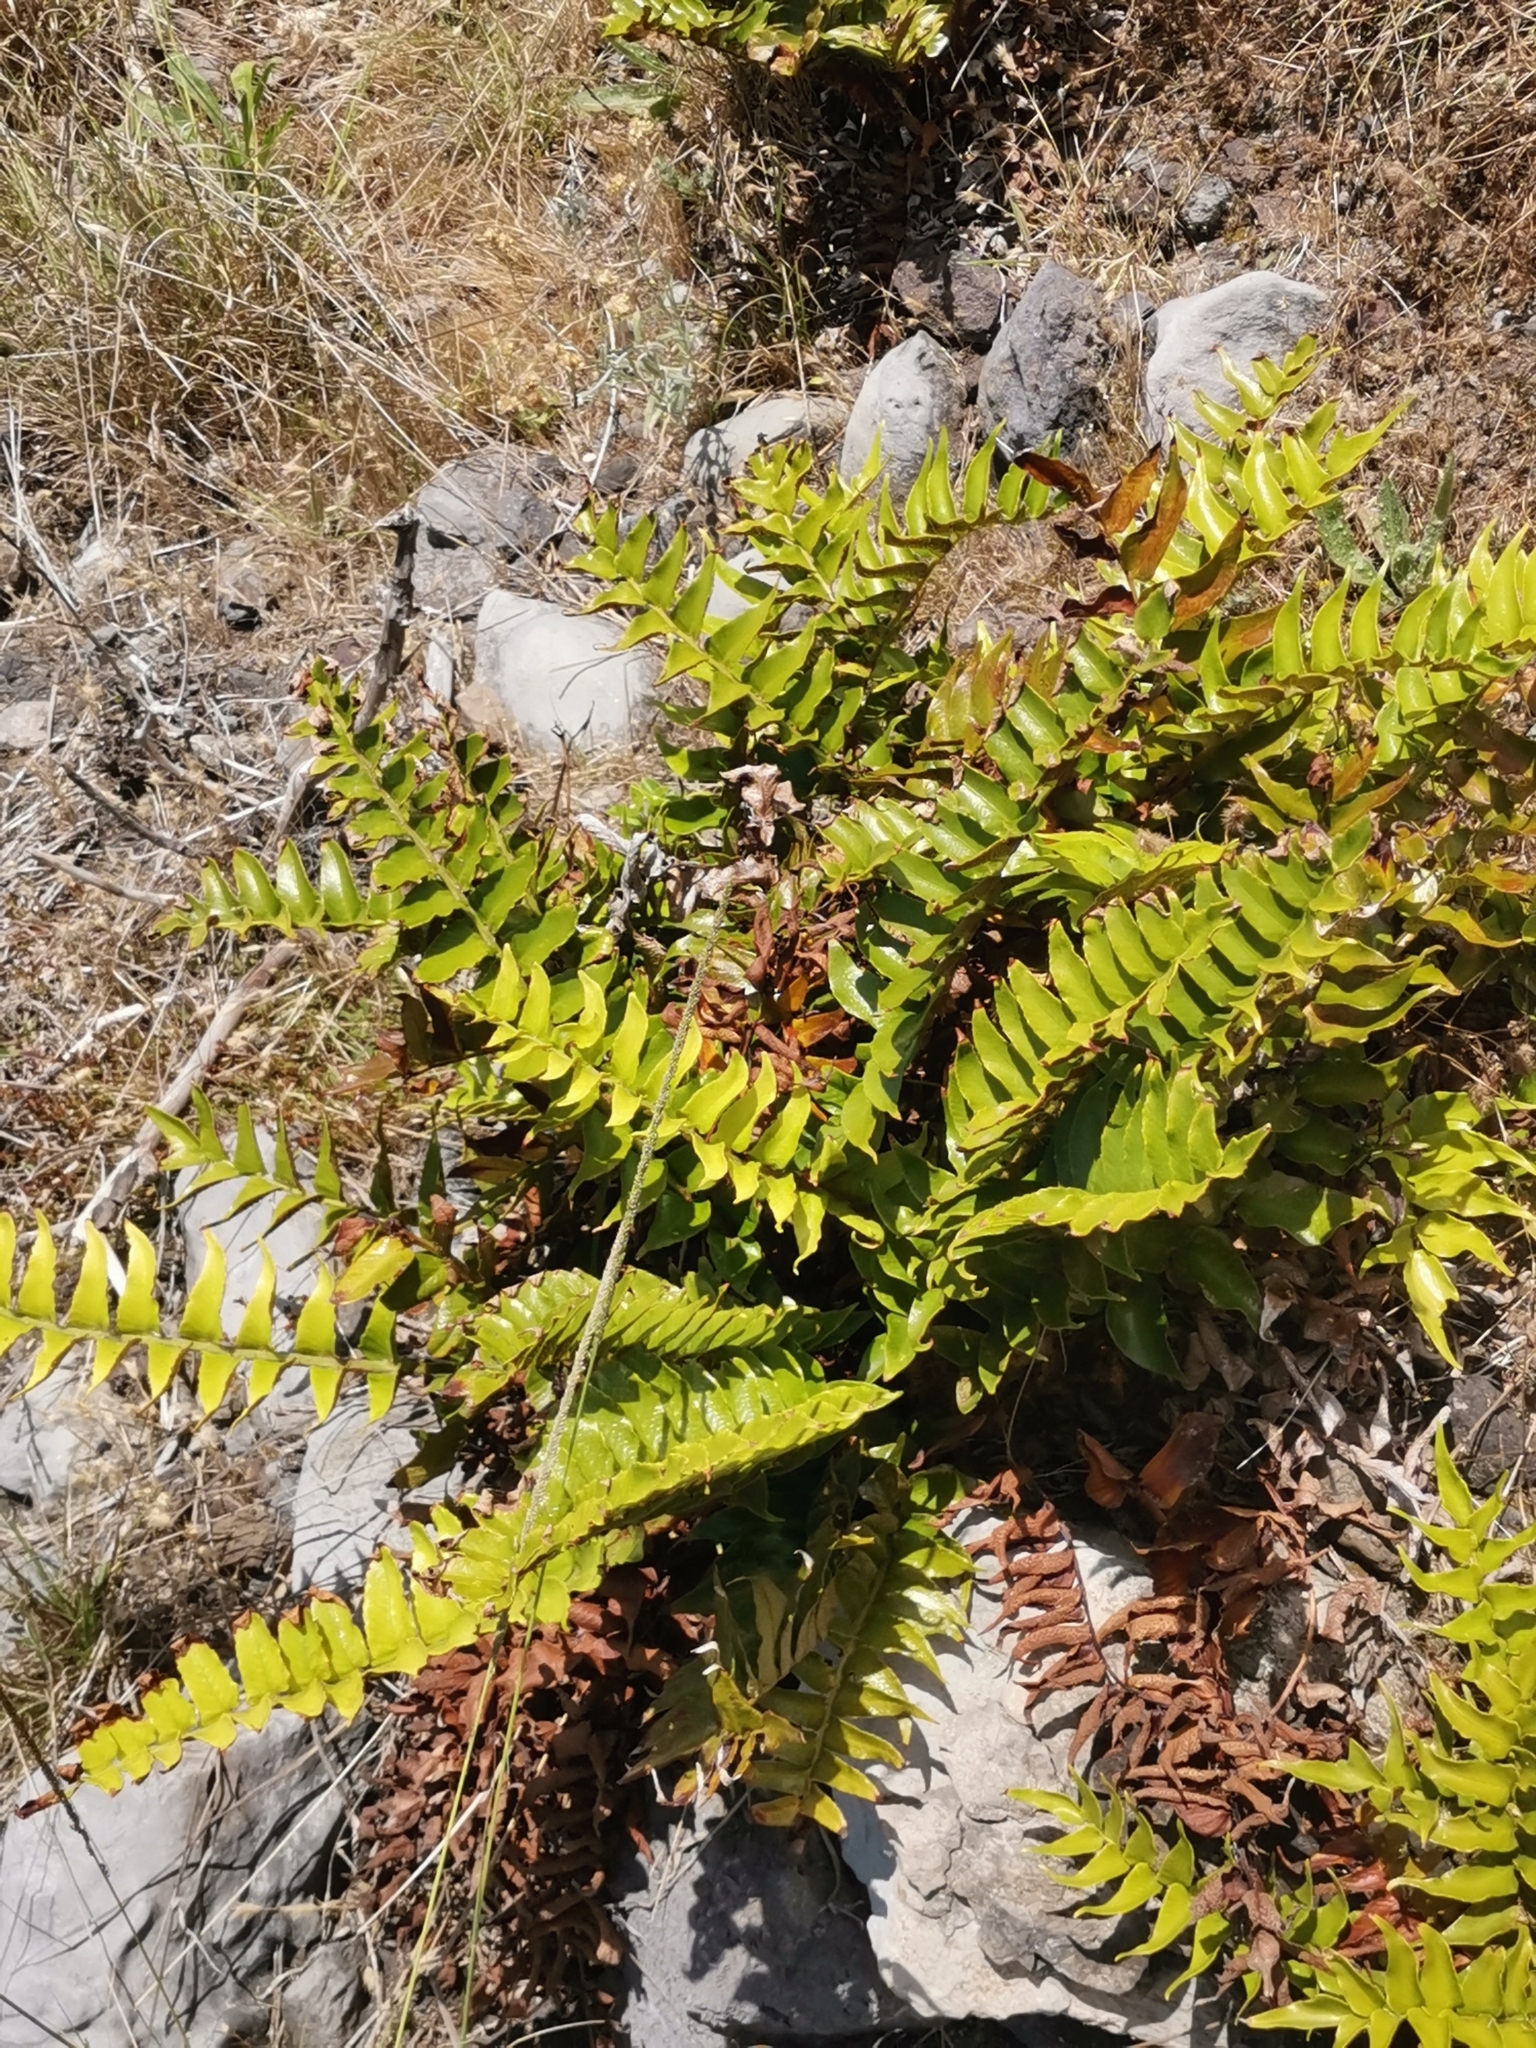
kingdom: Plantae
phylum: Tracheophyta
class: Polypodiopsida
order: Polypodiales
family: Dryopteridaceae
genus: Cyrtomium
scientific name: Cyrtomium falcatum
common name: House holly-fern
